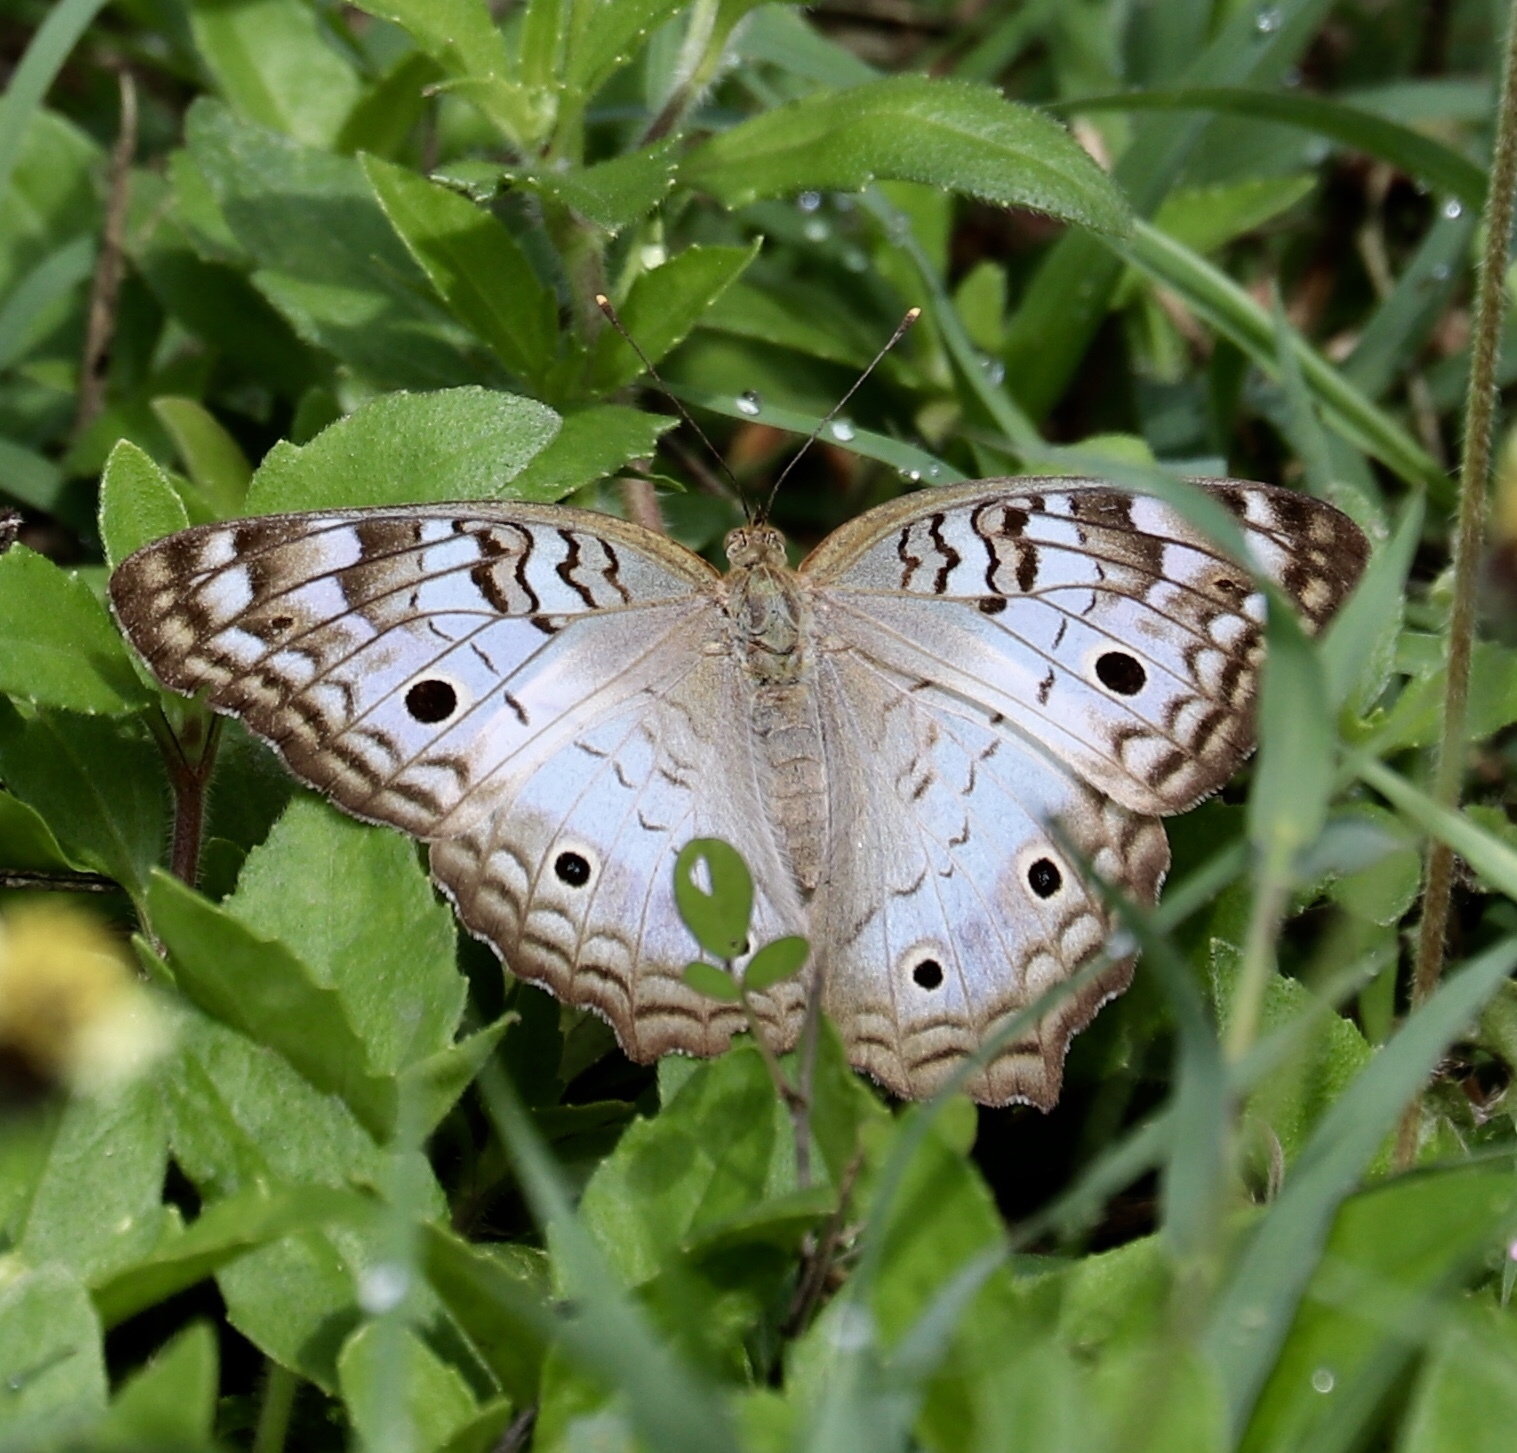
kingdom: Animalia
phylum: Arthropoda
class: Insecta
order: Lepidoptera
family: Nymphalidae
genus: Anartia
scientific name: Anartia jatrophae
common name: White peacock
